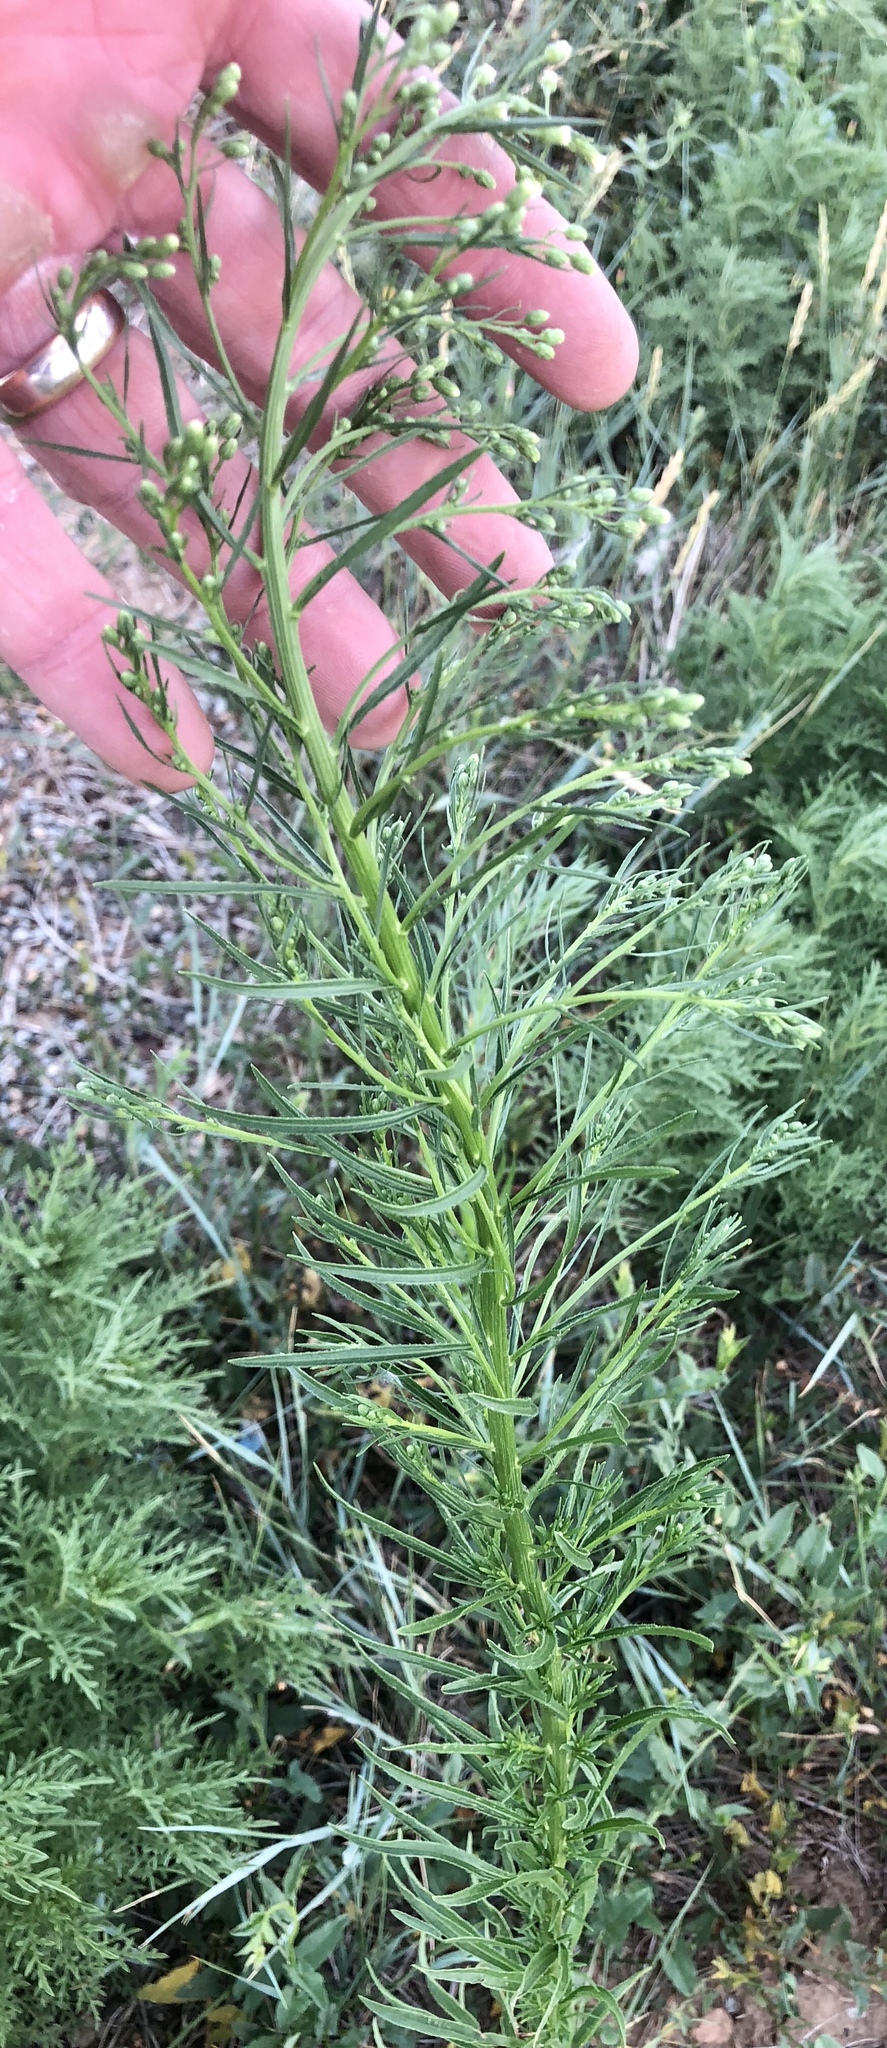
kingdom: Plantae
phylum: Tracheophyta
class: Magnoliopsida
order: Asterales
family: Asteraceae
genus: Erigeron
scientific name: Erigeron canadensis
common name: Canadian fleabane
